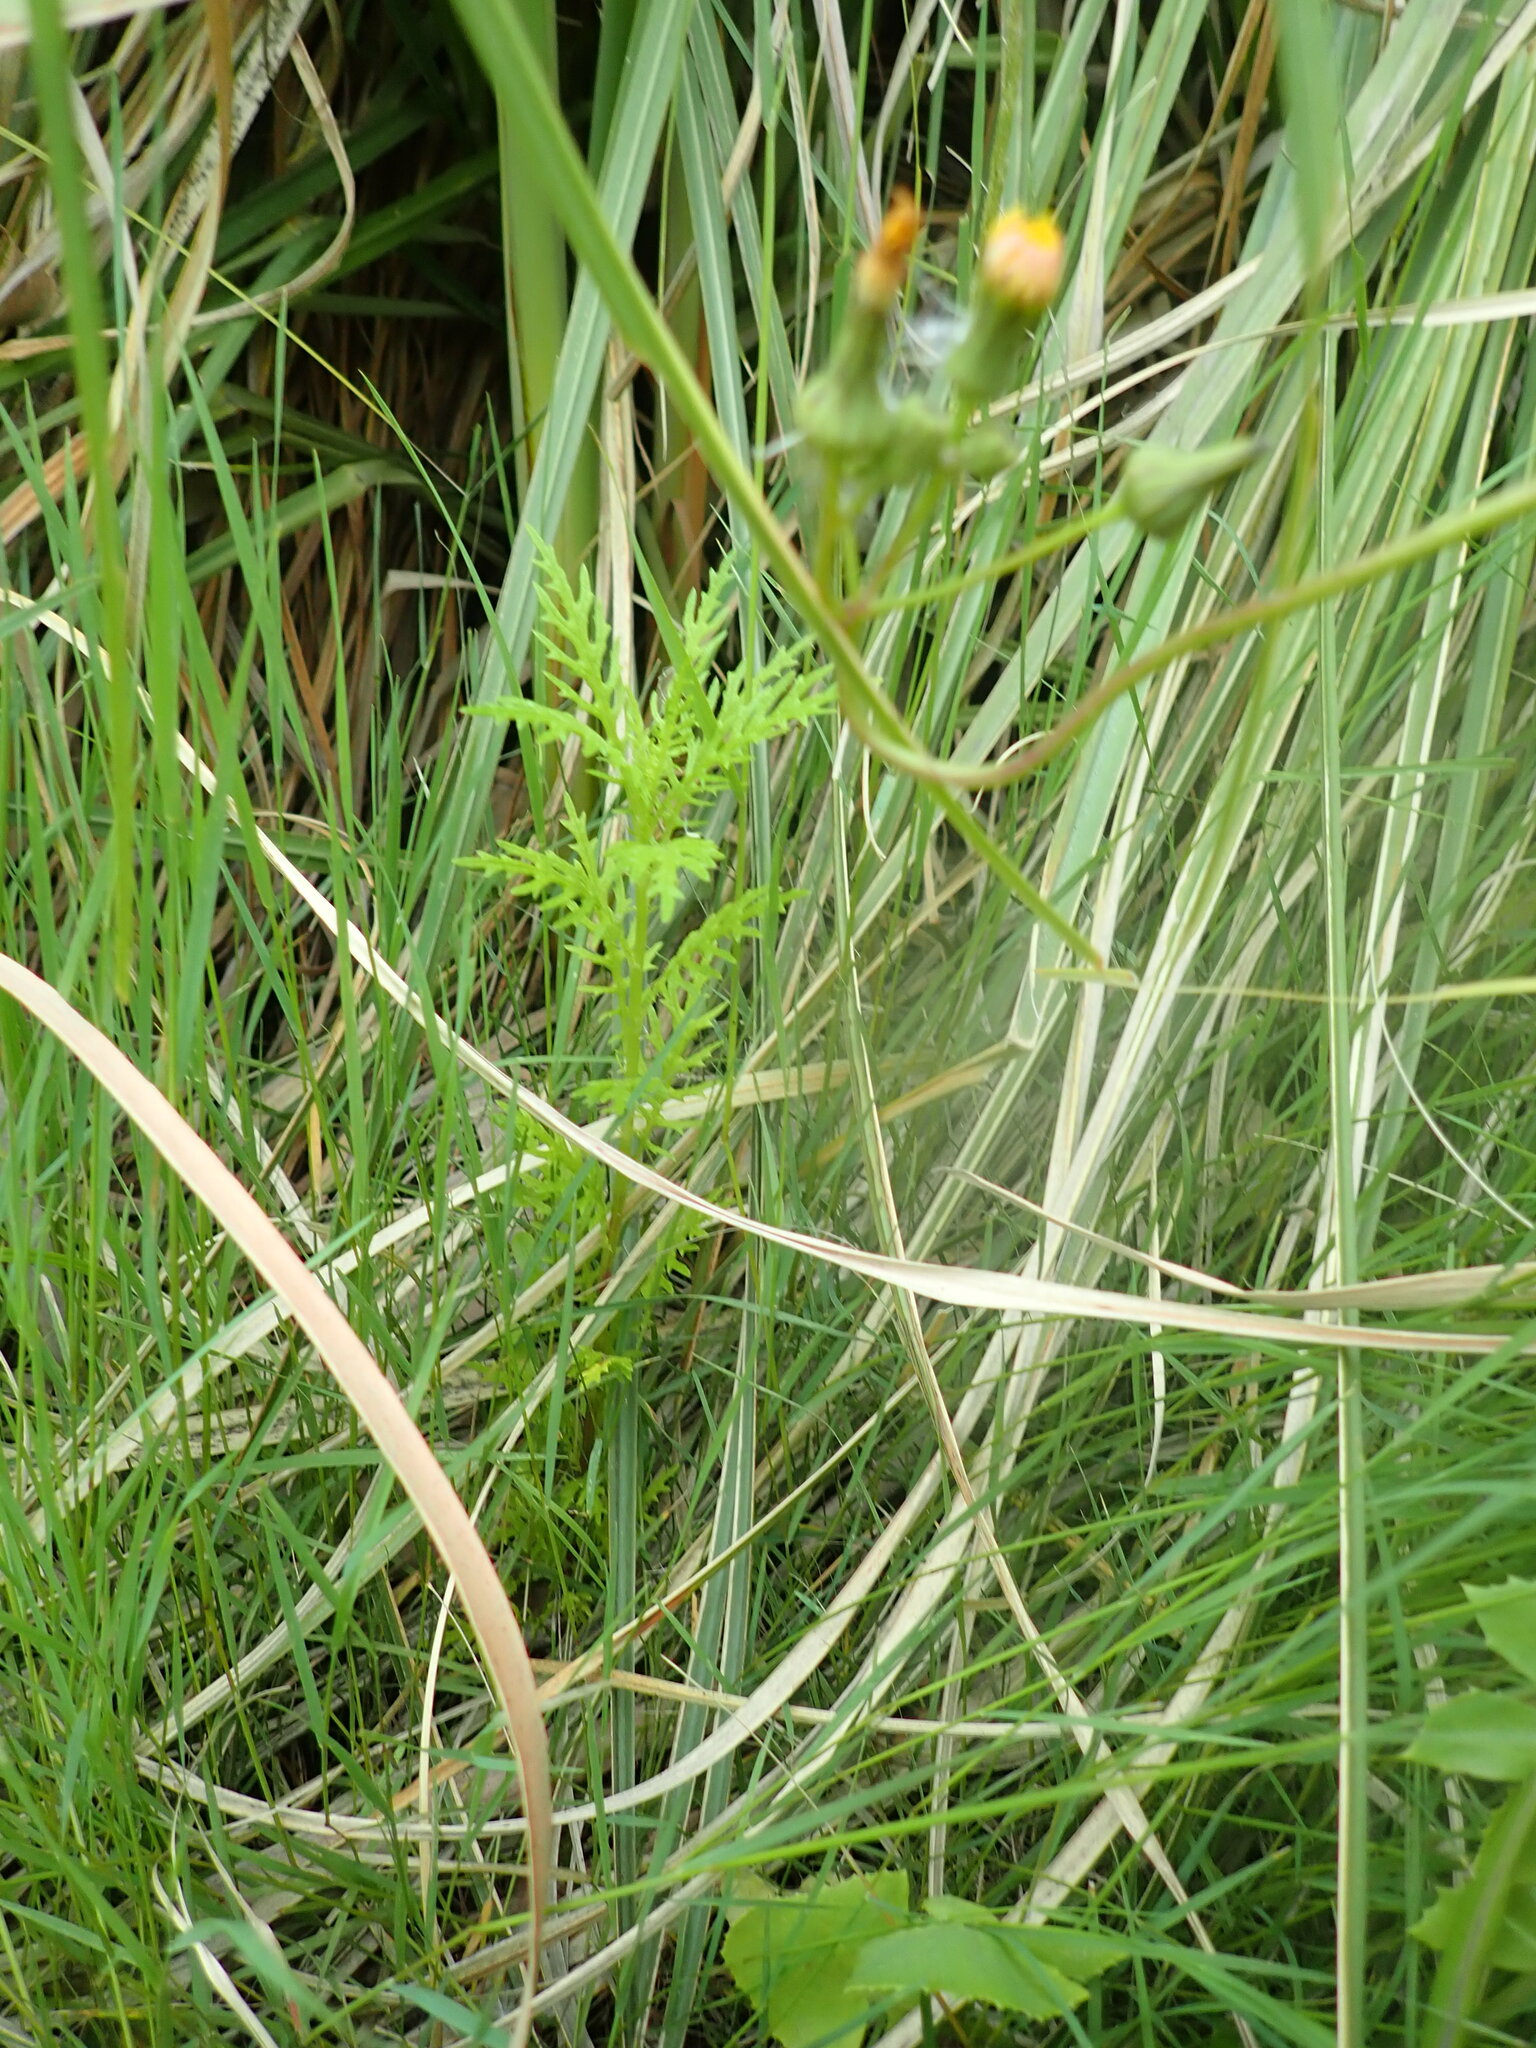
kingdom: Plantae
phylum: Tracheophyta
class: Magnoliopsida
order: Asterales
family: Asteraceae
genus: Senecio
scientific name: Senecio bipinnatisectus
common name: Australian fireweed
